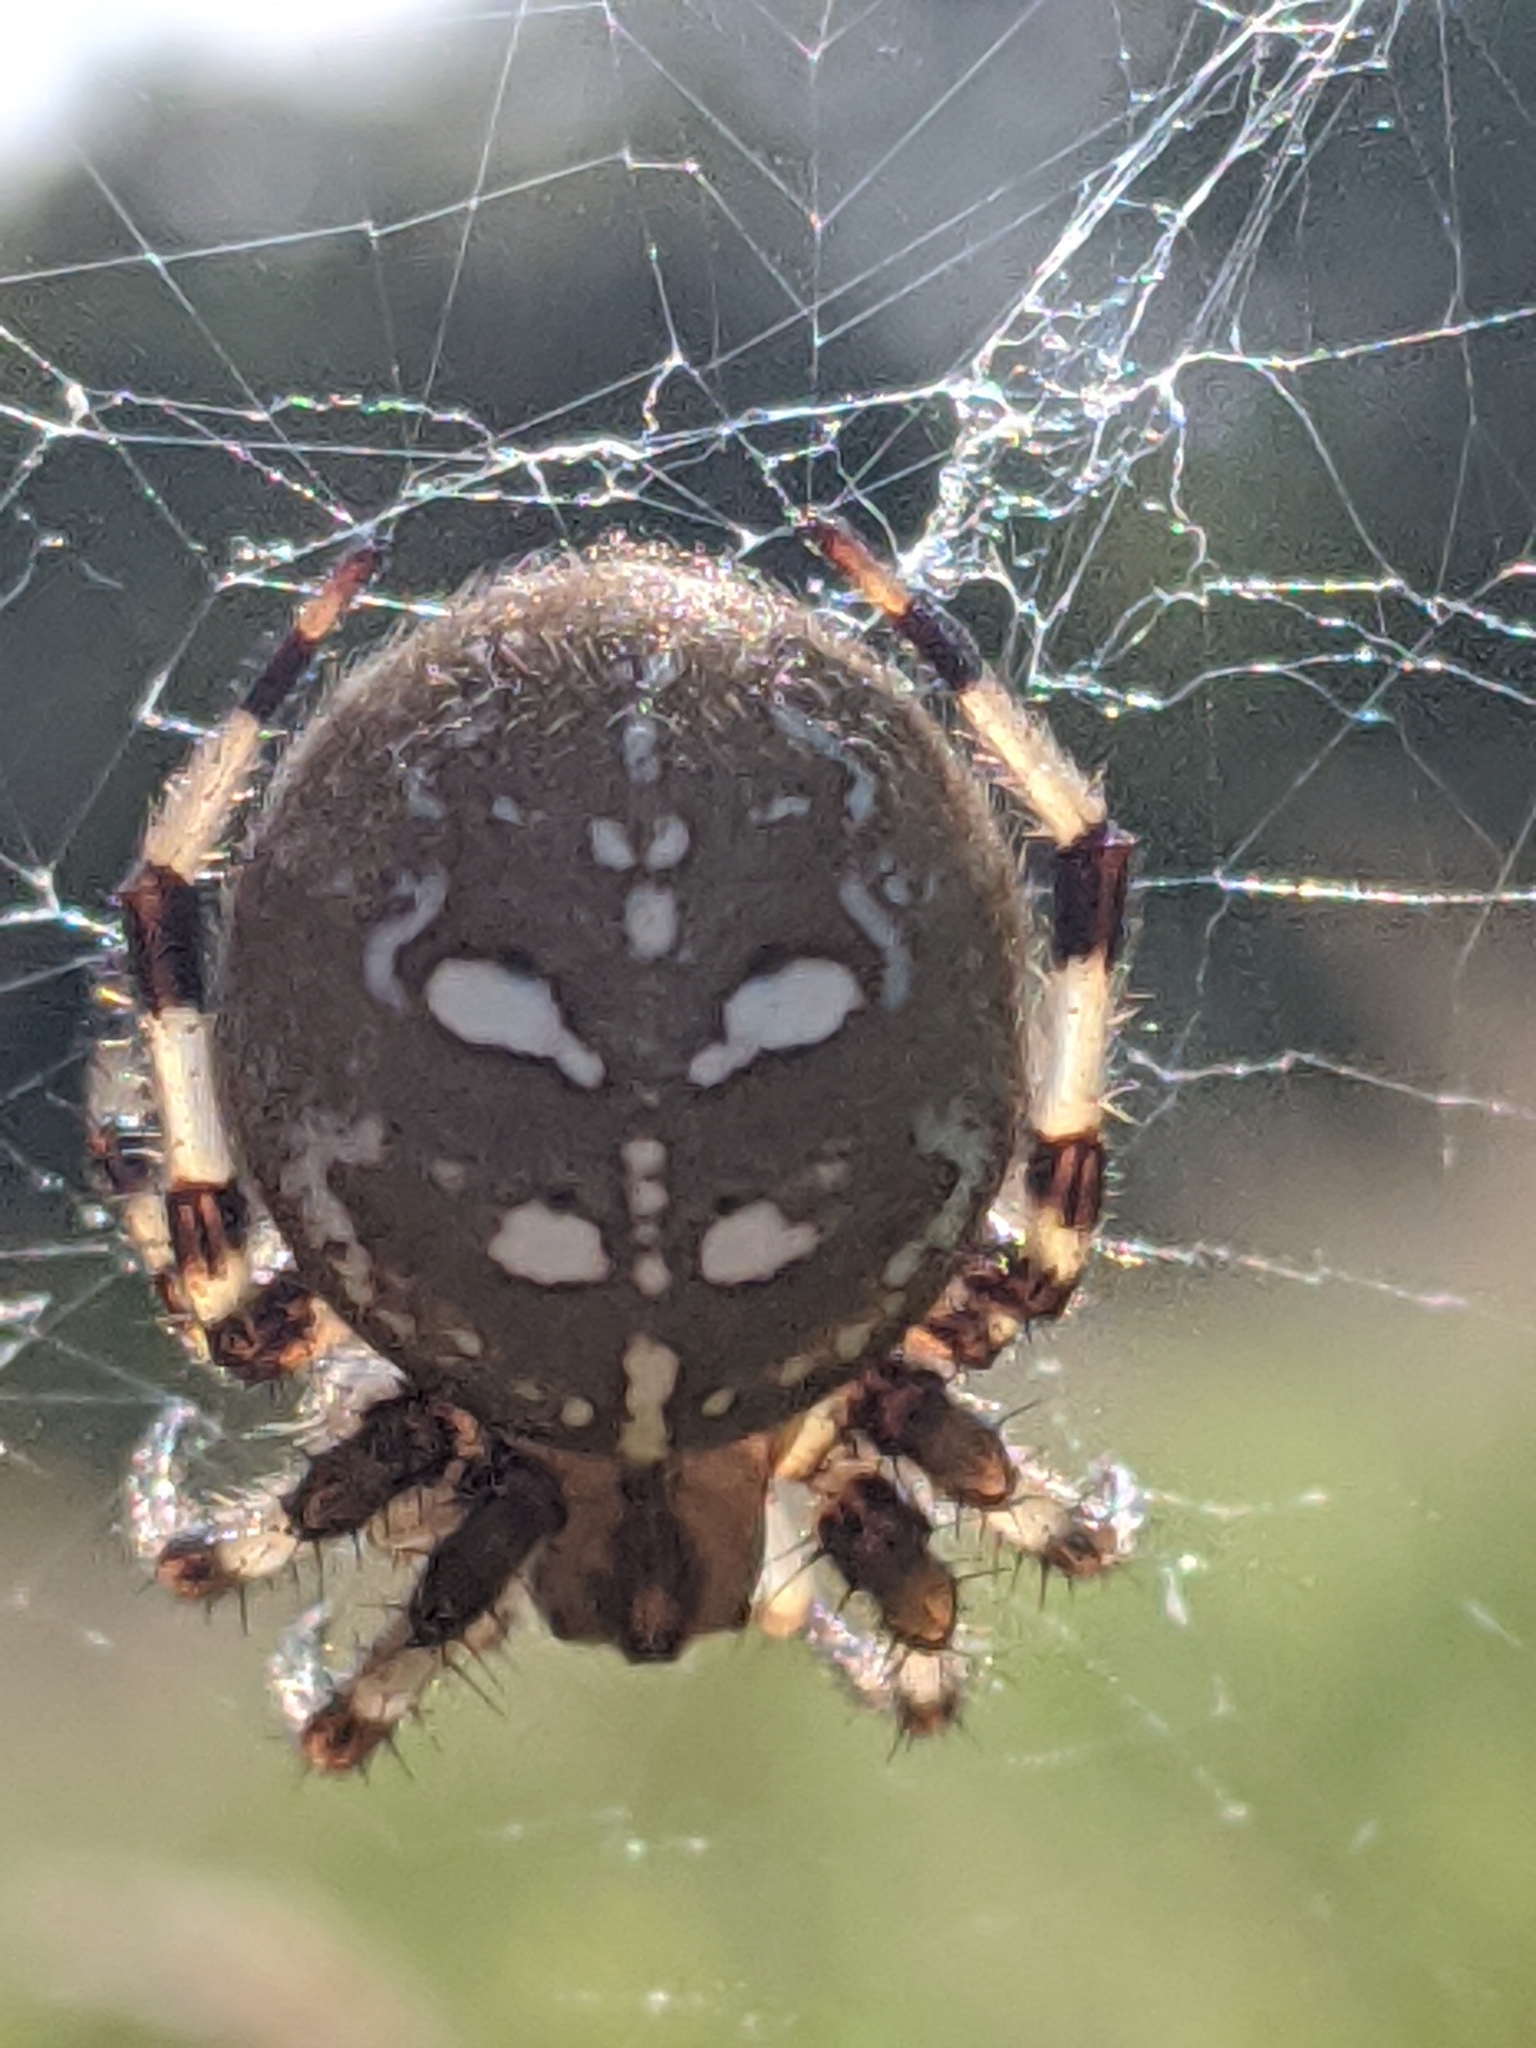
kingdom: Animalia
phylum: Arthropoda
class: Arachnida
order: Araneae
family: Araneidae
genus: Araneus
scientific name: Araneus quadratus
